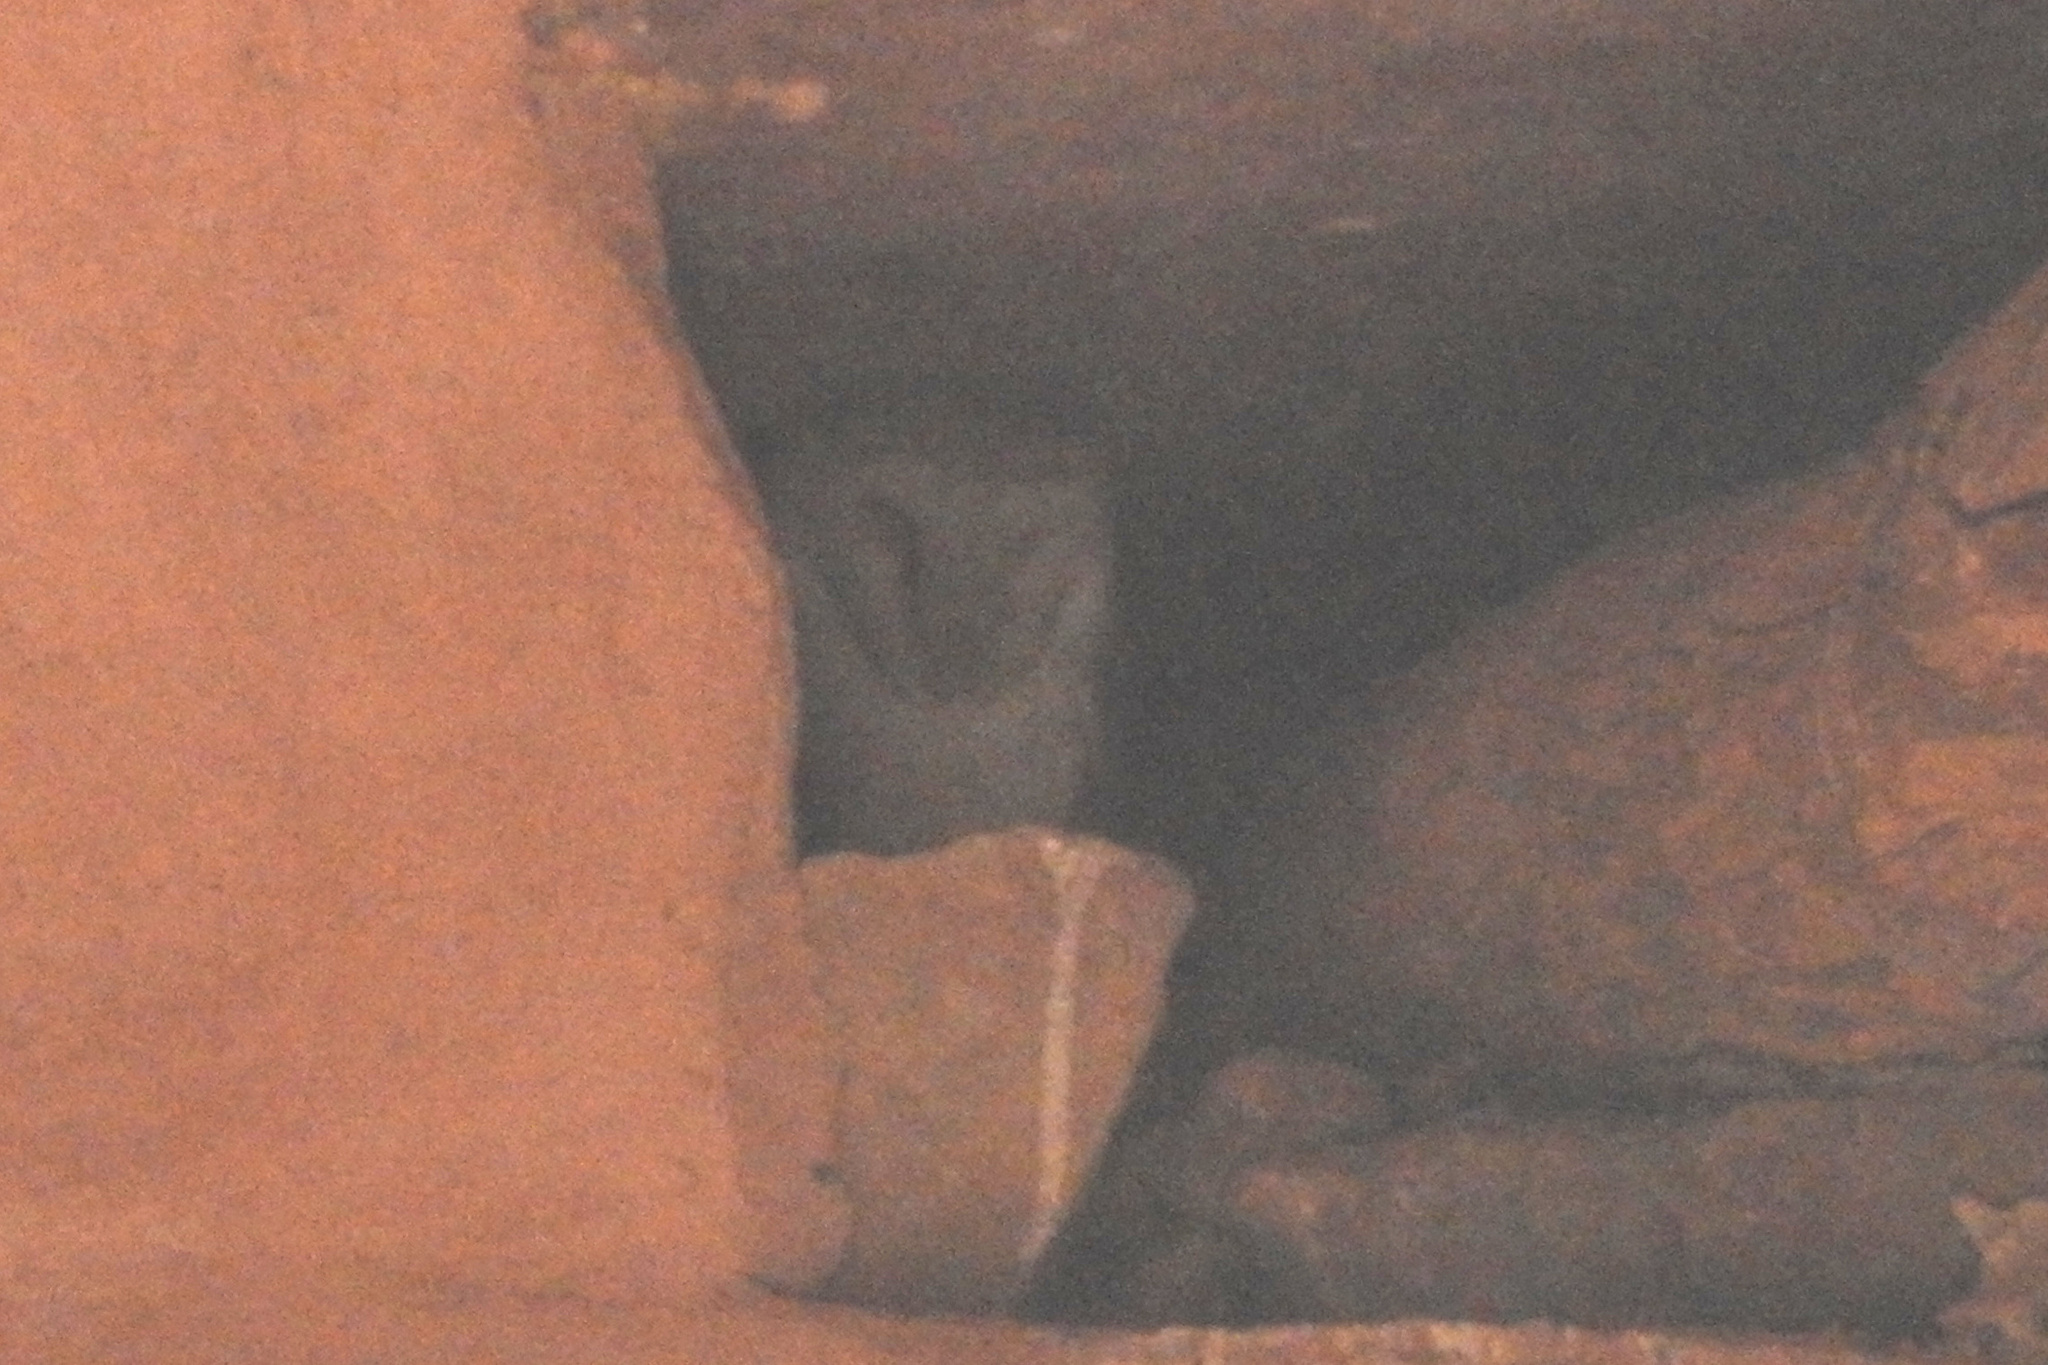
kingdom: Animalia
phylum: Chordata
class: Aves
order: Strigiformes
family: Tytonidae
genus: Tyto
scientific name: Tyto alba
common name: Barn owl
